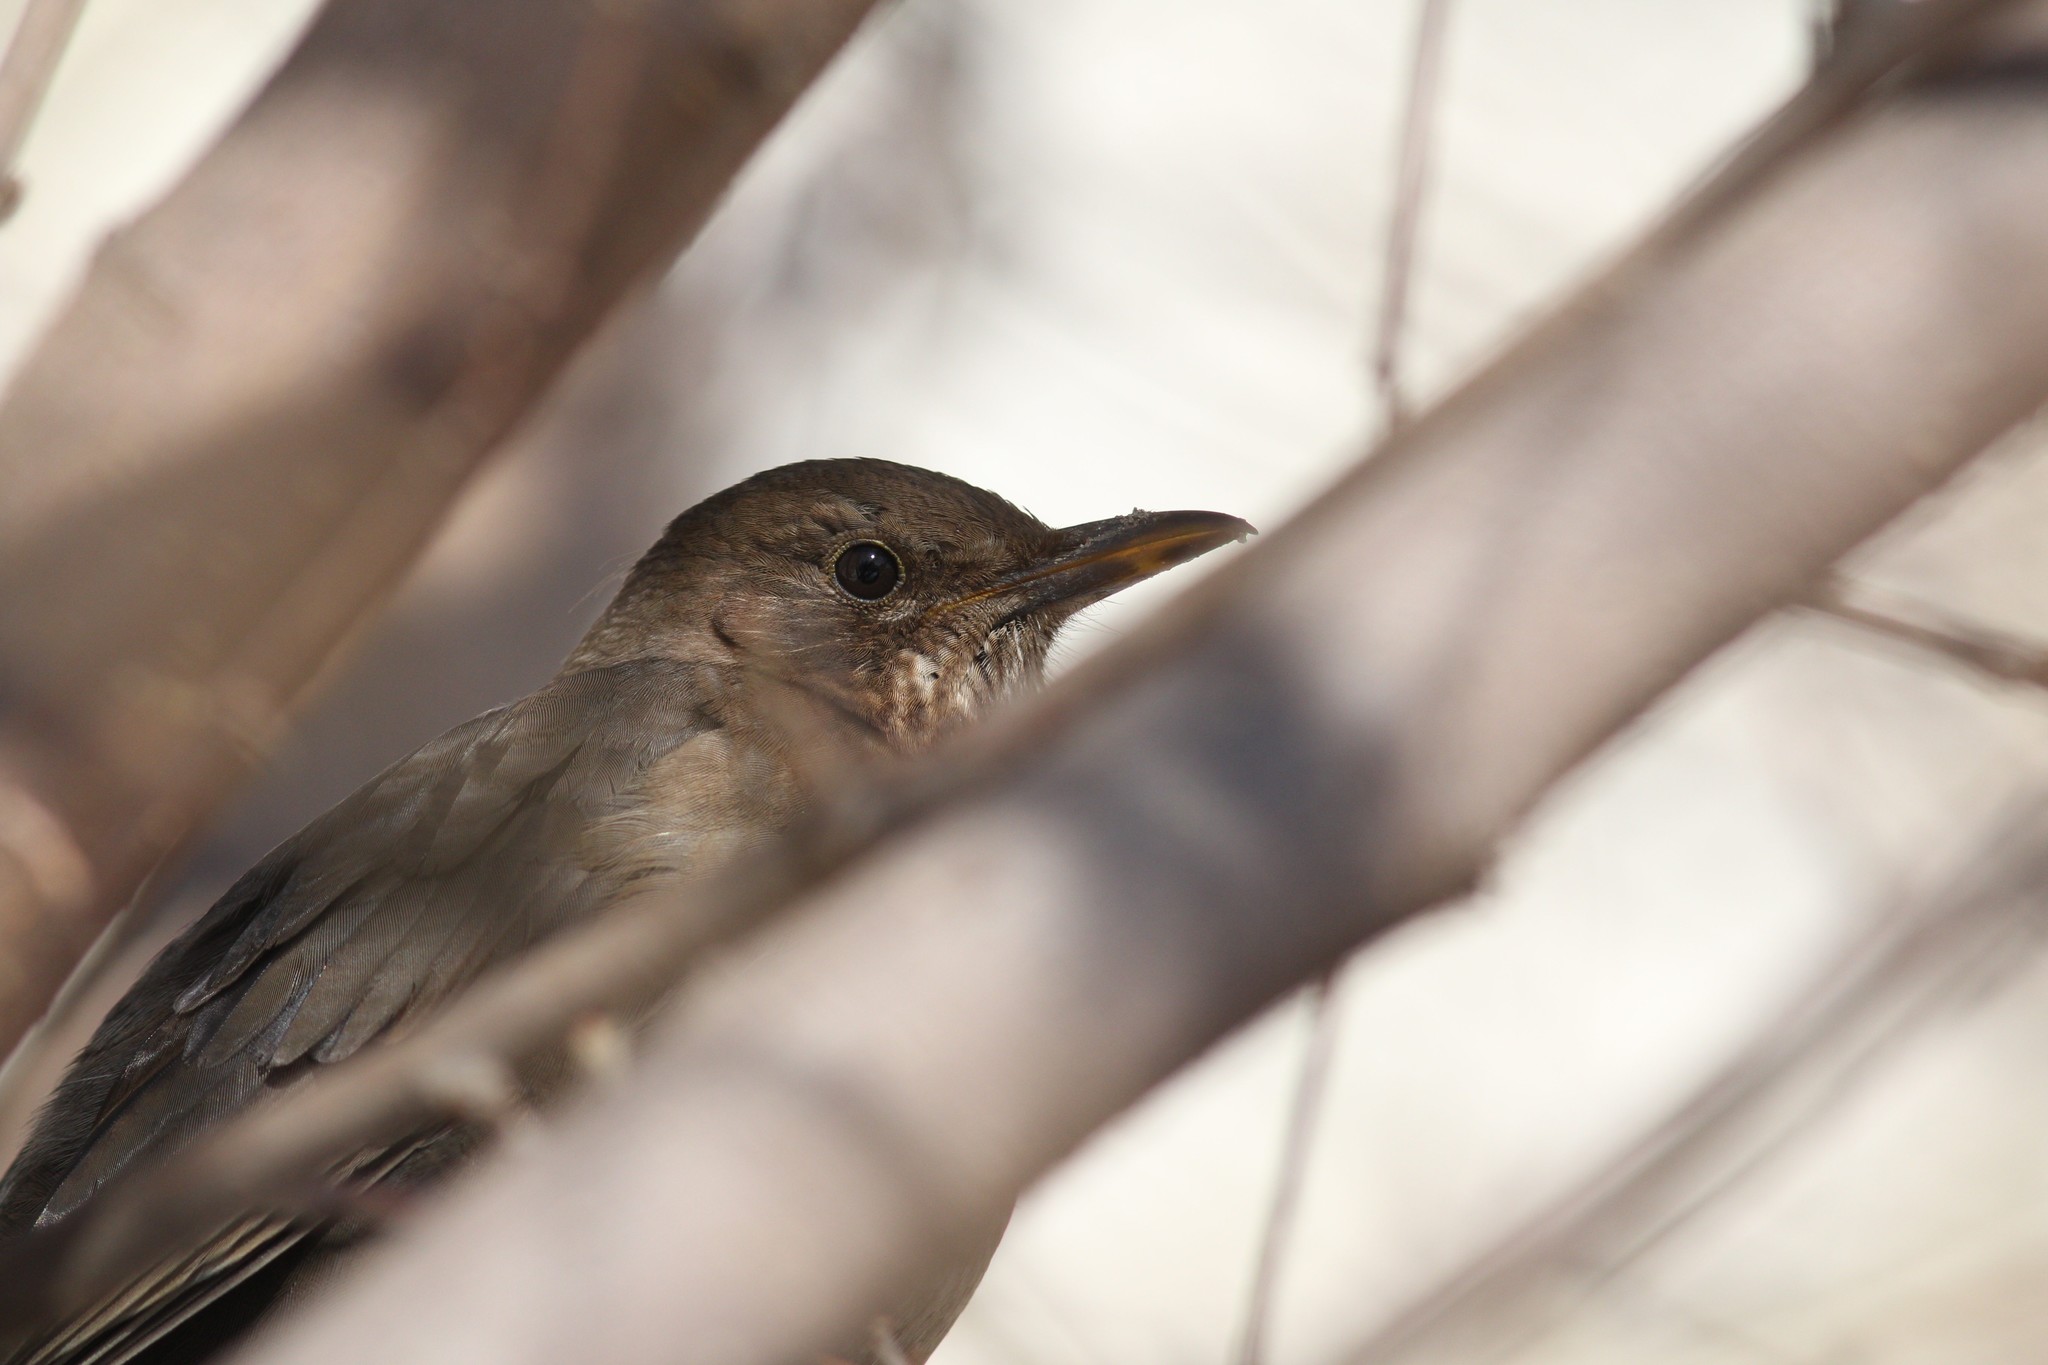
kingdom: Animalia
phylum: Chordata
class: Aves
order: Passeriformes
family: Turdidae
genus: Turdus
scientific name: Turdus merula
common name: Common blackbird
